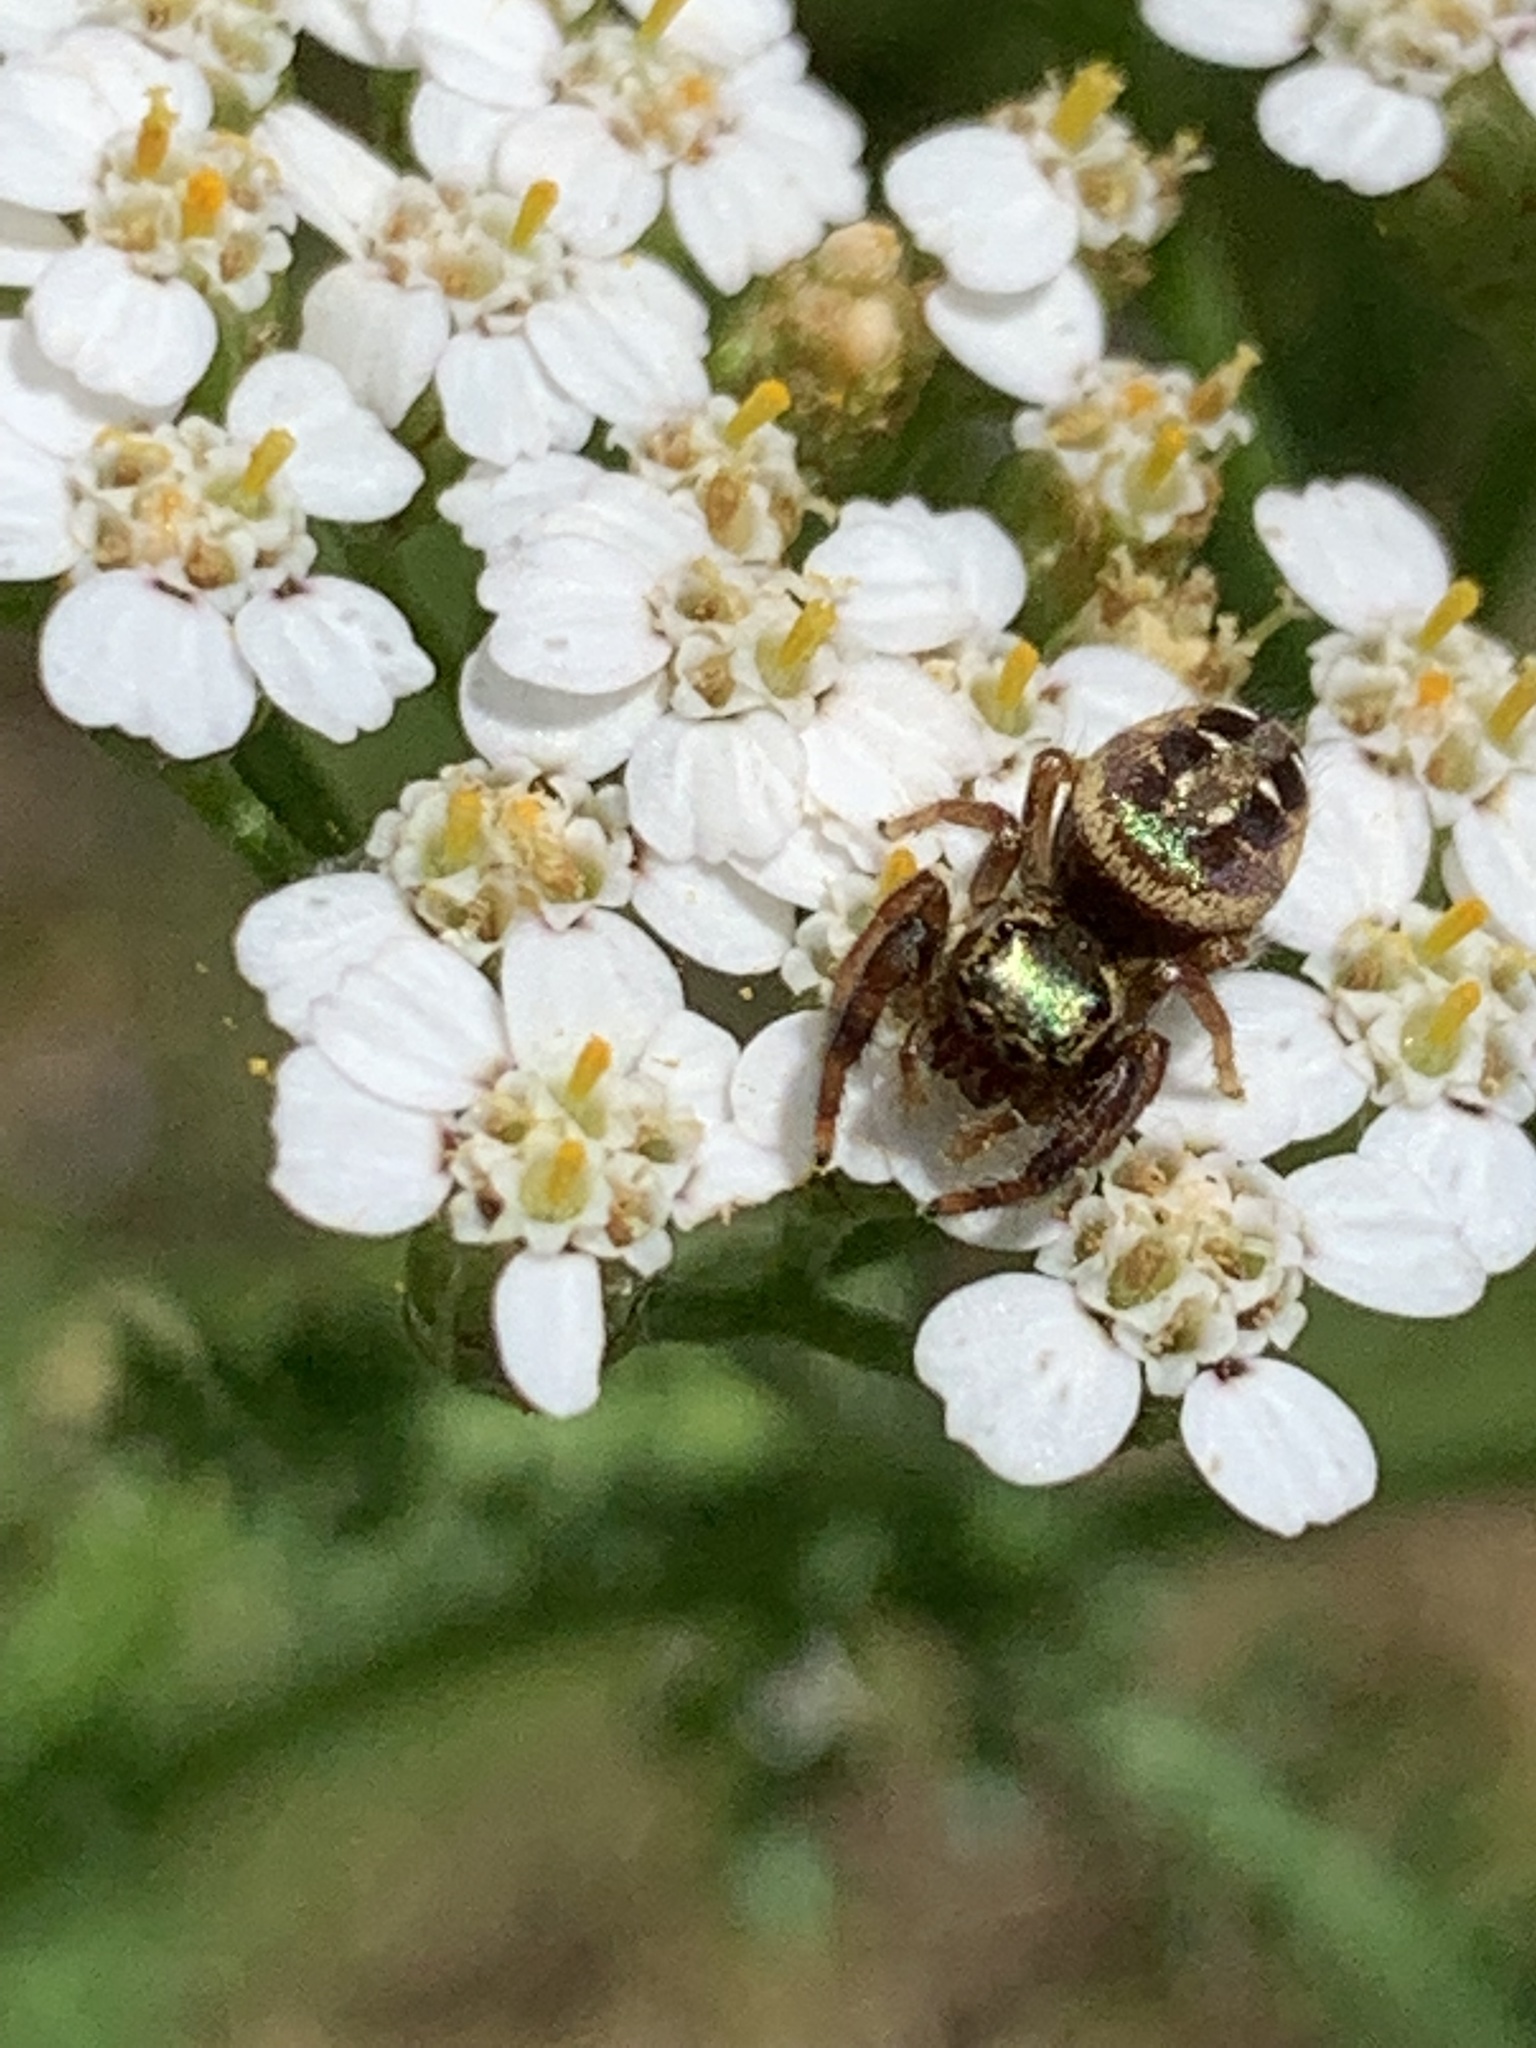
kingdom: Animalia
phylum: Arthropoda
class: Arachnida
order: Araneae
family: Salticidae
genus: Paraphidippus
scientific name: Paraphidippus aurantius
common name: Jumping spiders
